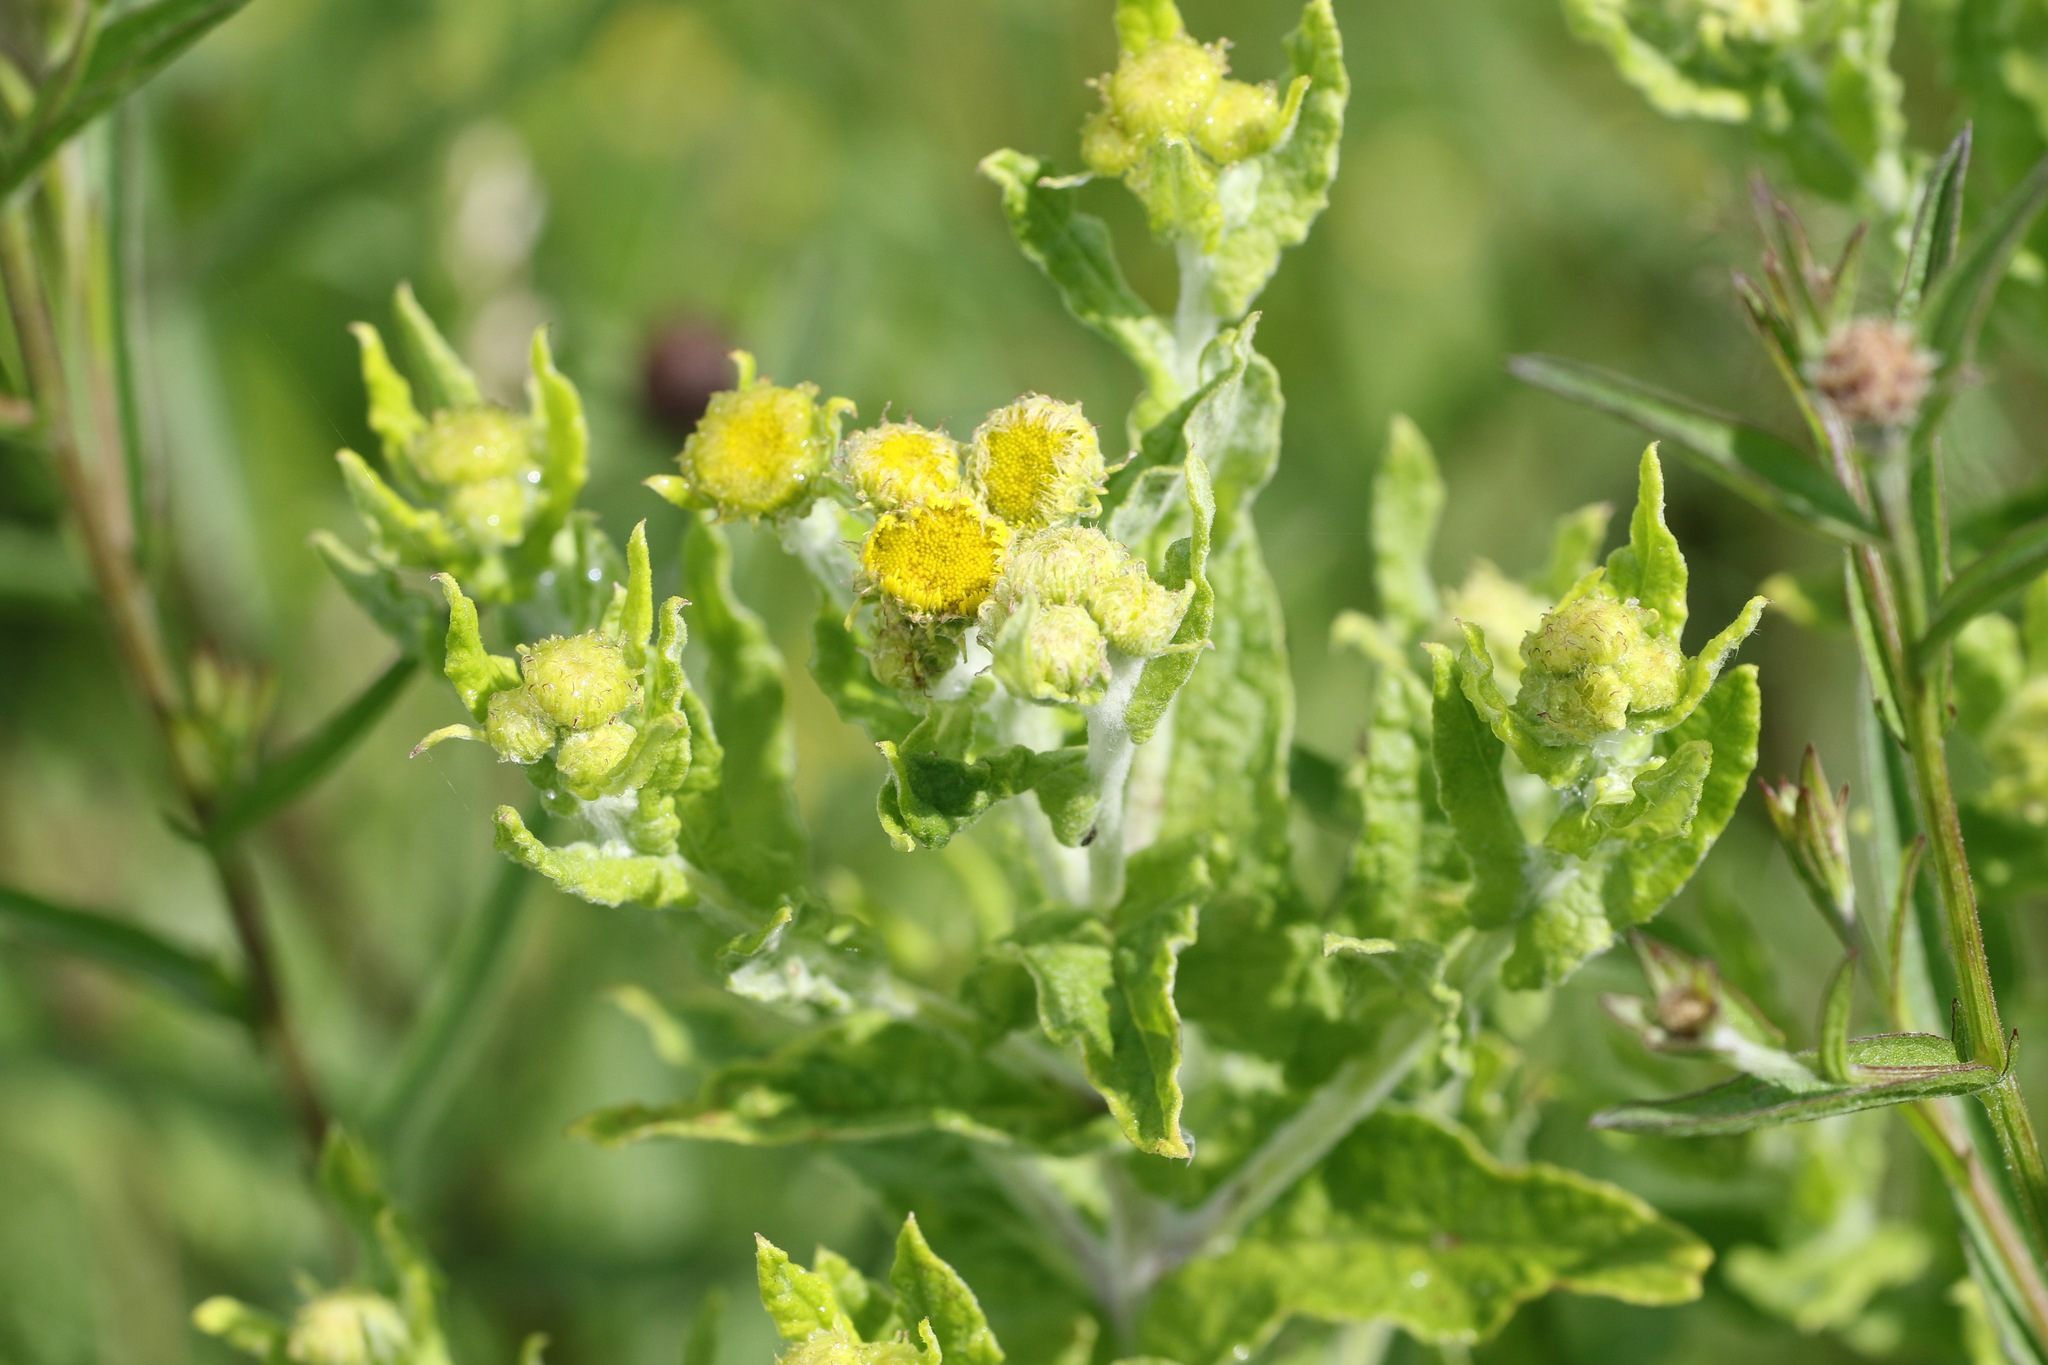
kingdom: Plantae
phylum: Tracheophyta
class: Magnoliopsida
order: Asterales
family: Asteraceae
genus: Pulicaria
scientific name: Pulicaria dysenterica
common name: Common fleabane
